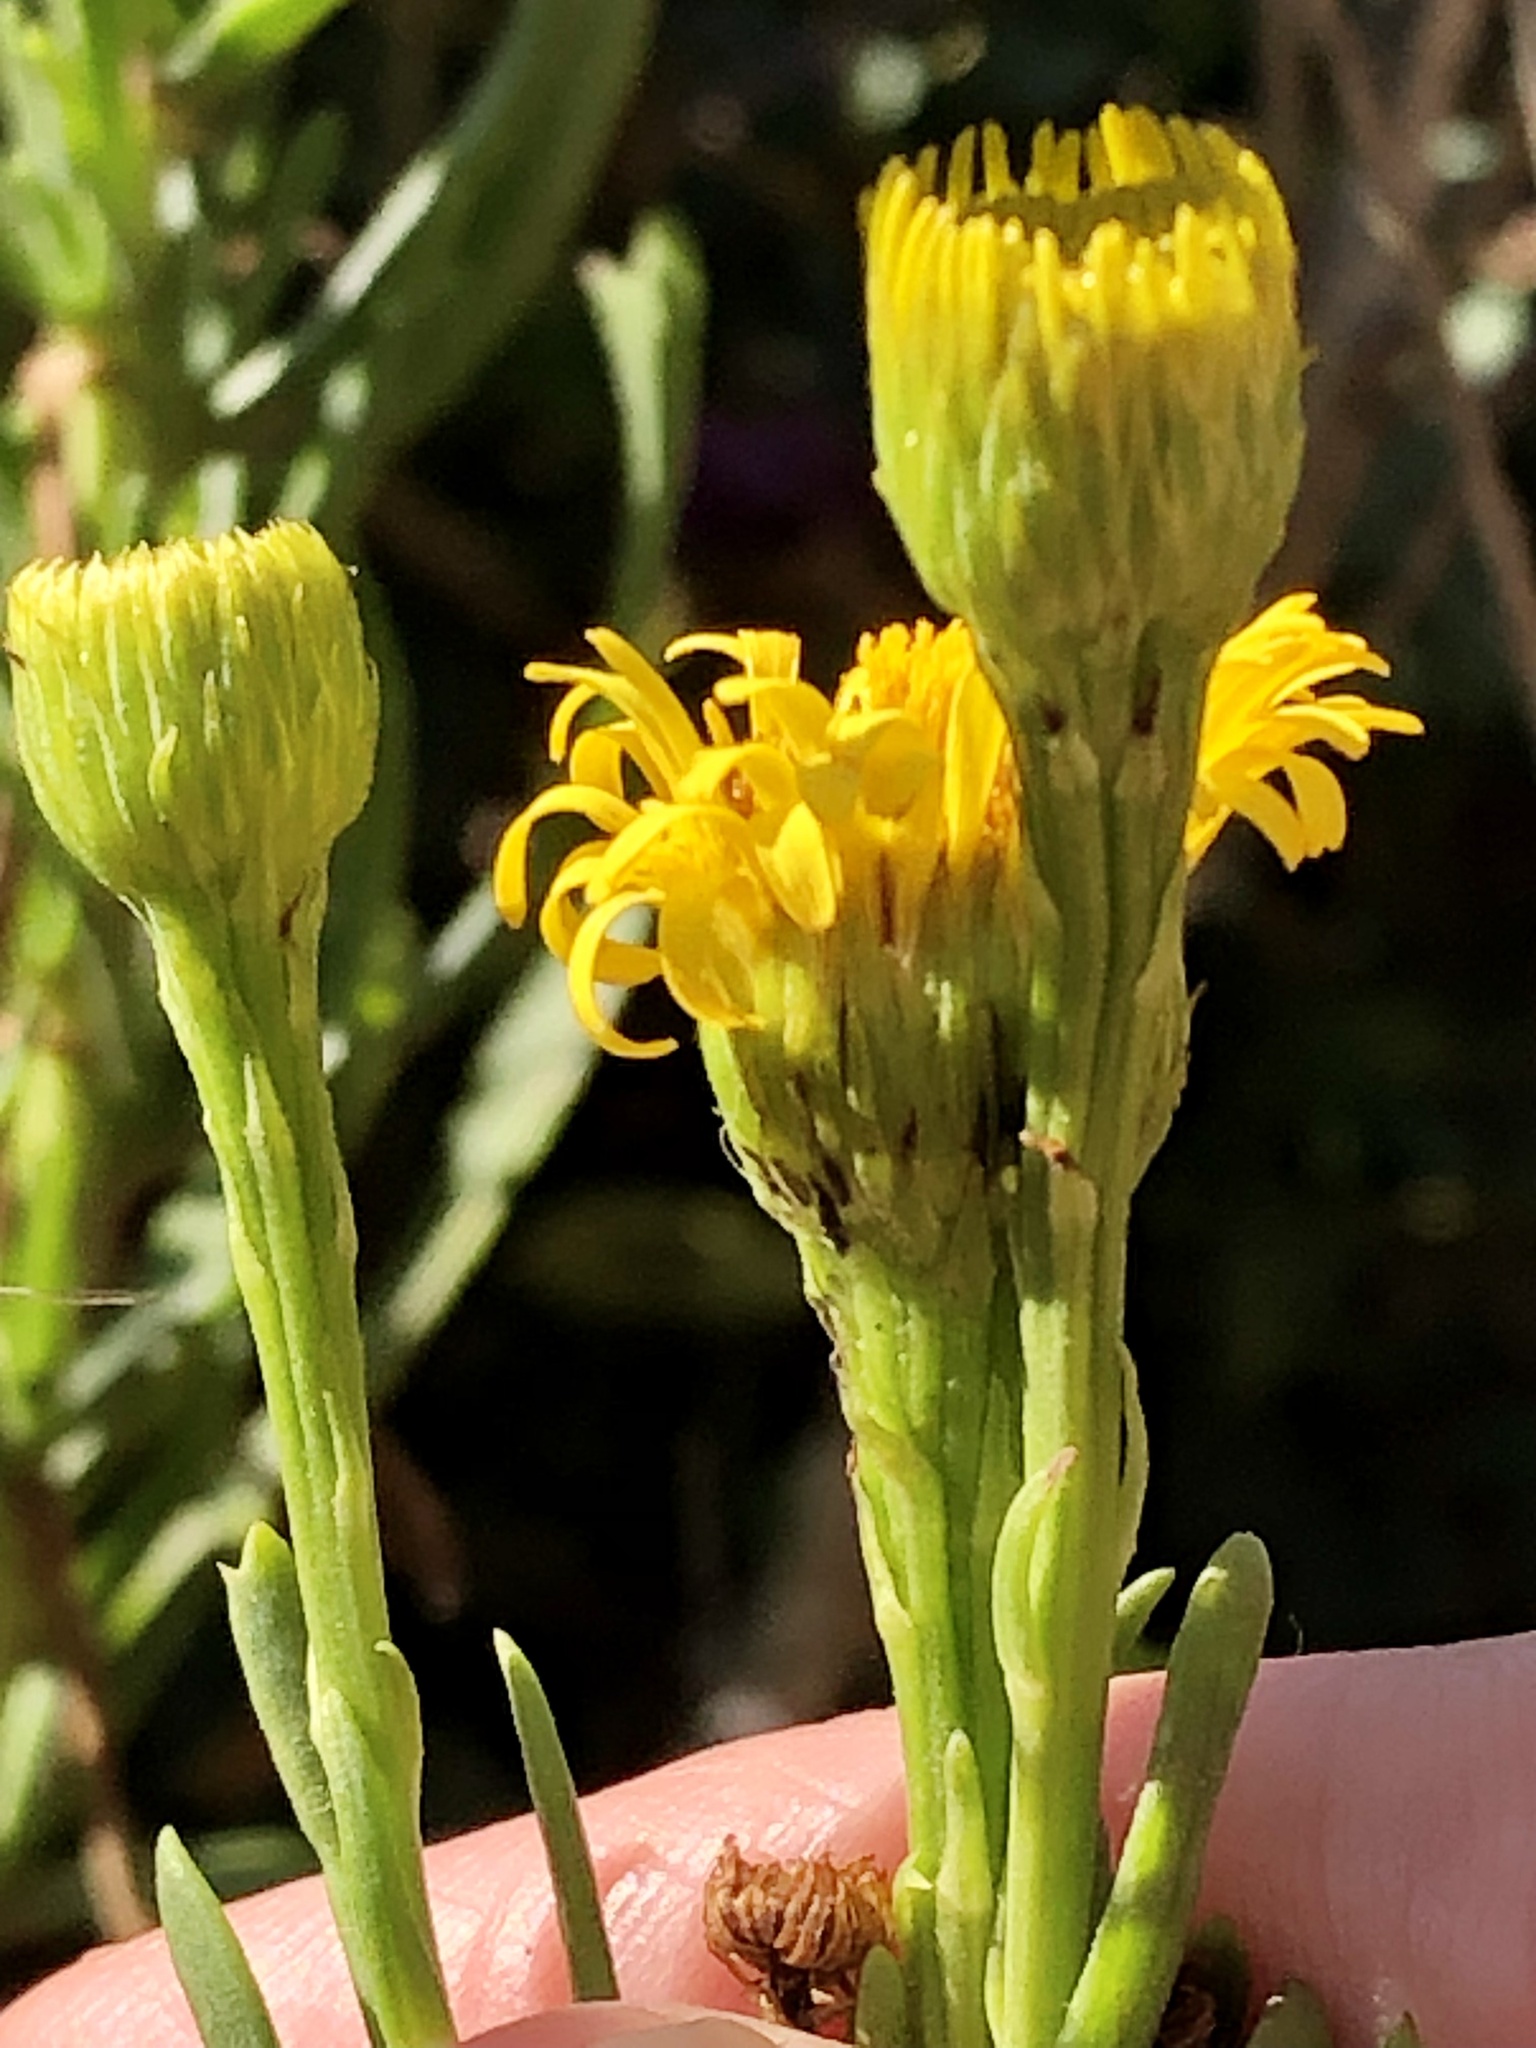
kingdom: Plantae
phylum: Tracheophyta
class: Magnoliopsida
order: Asterales
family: Asteraceae
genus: Limbarda
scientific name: Limbarda crithmoides
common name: Golden samphire
